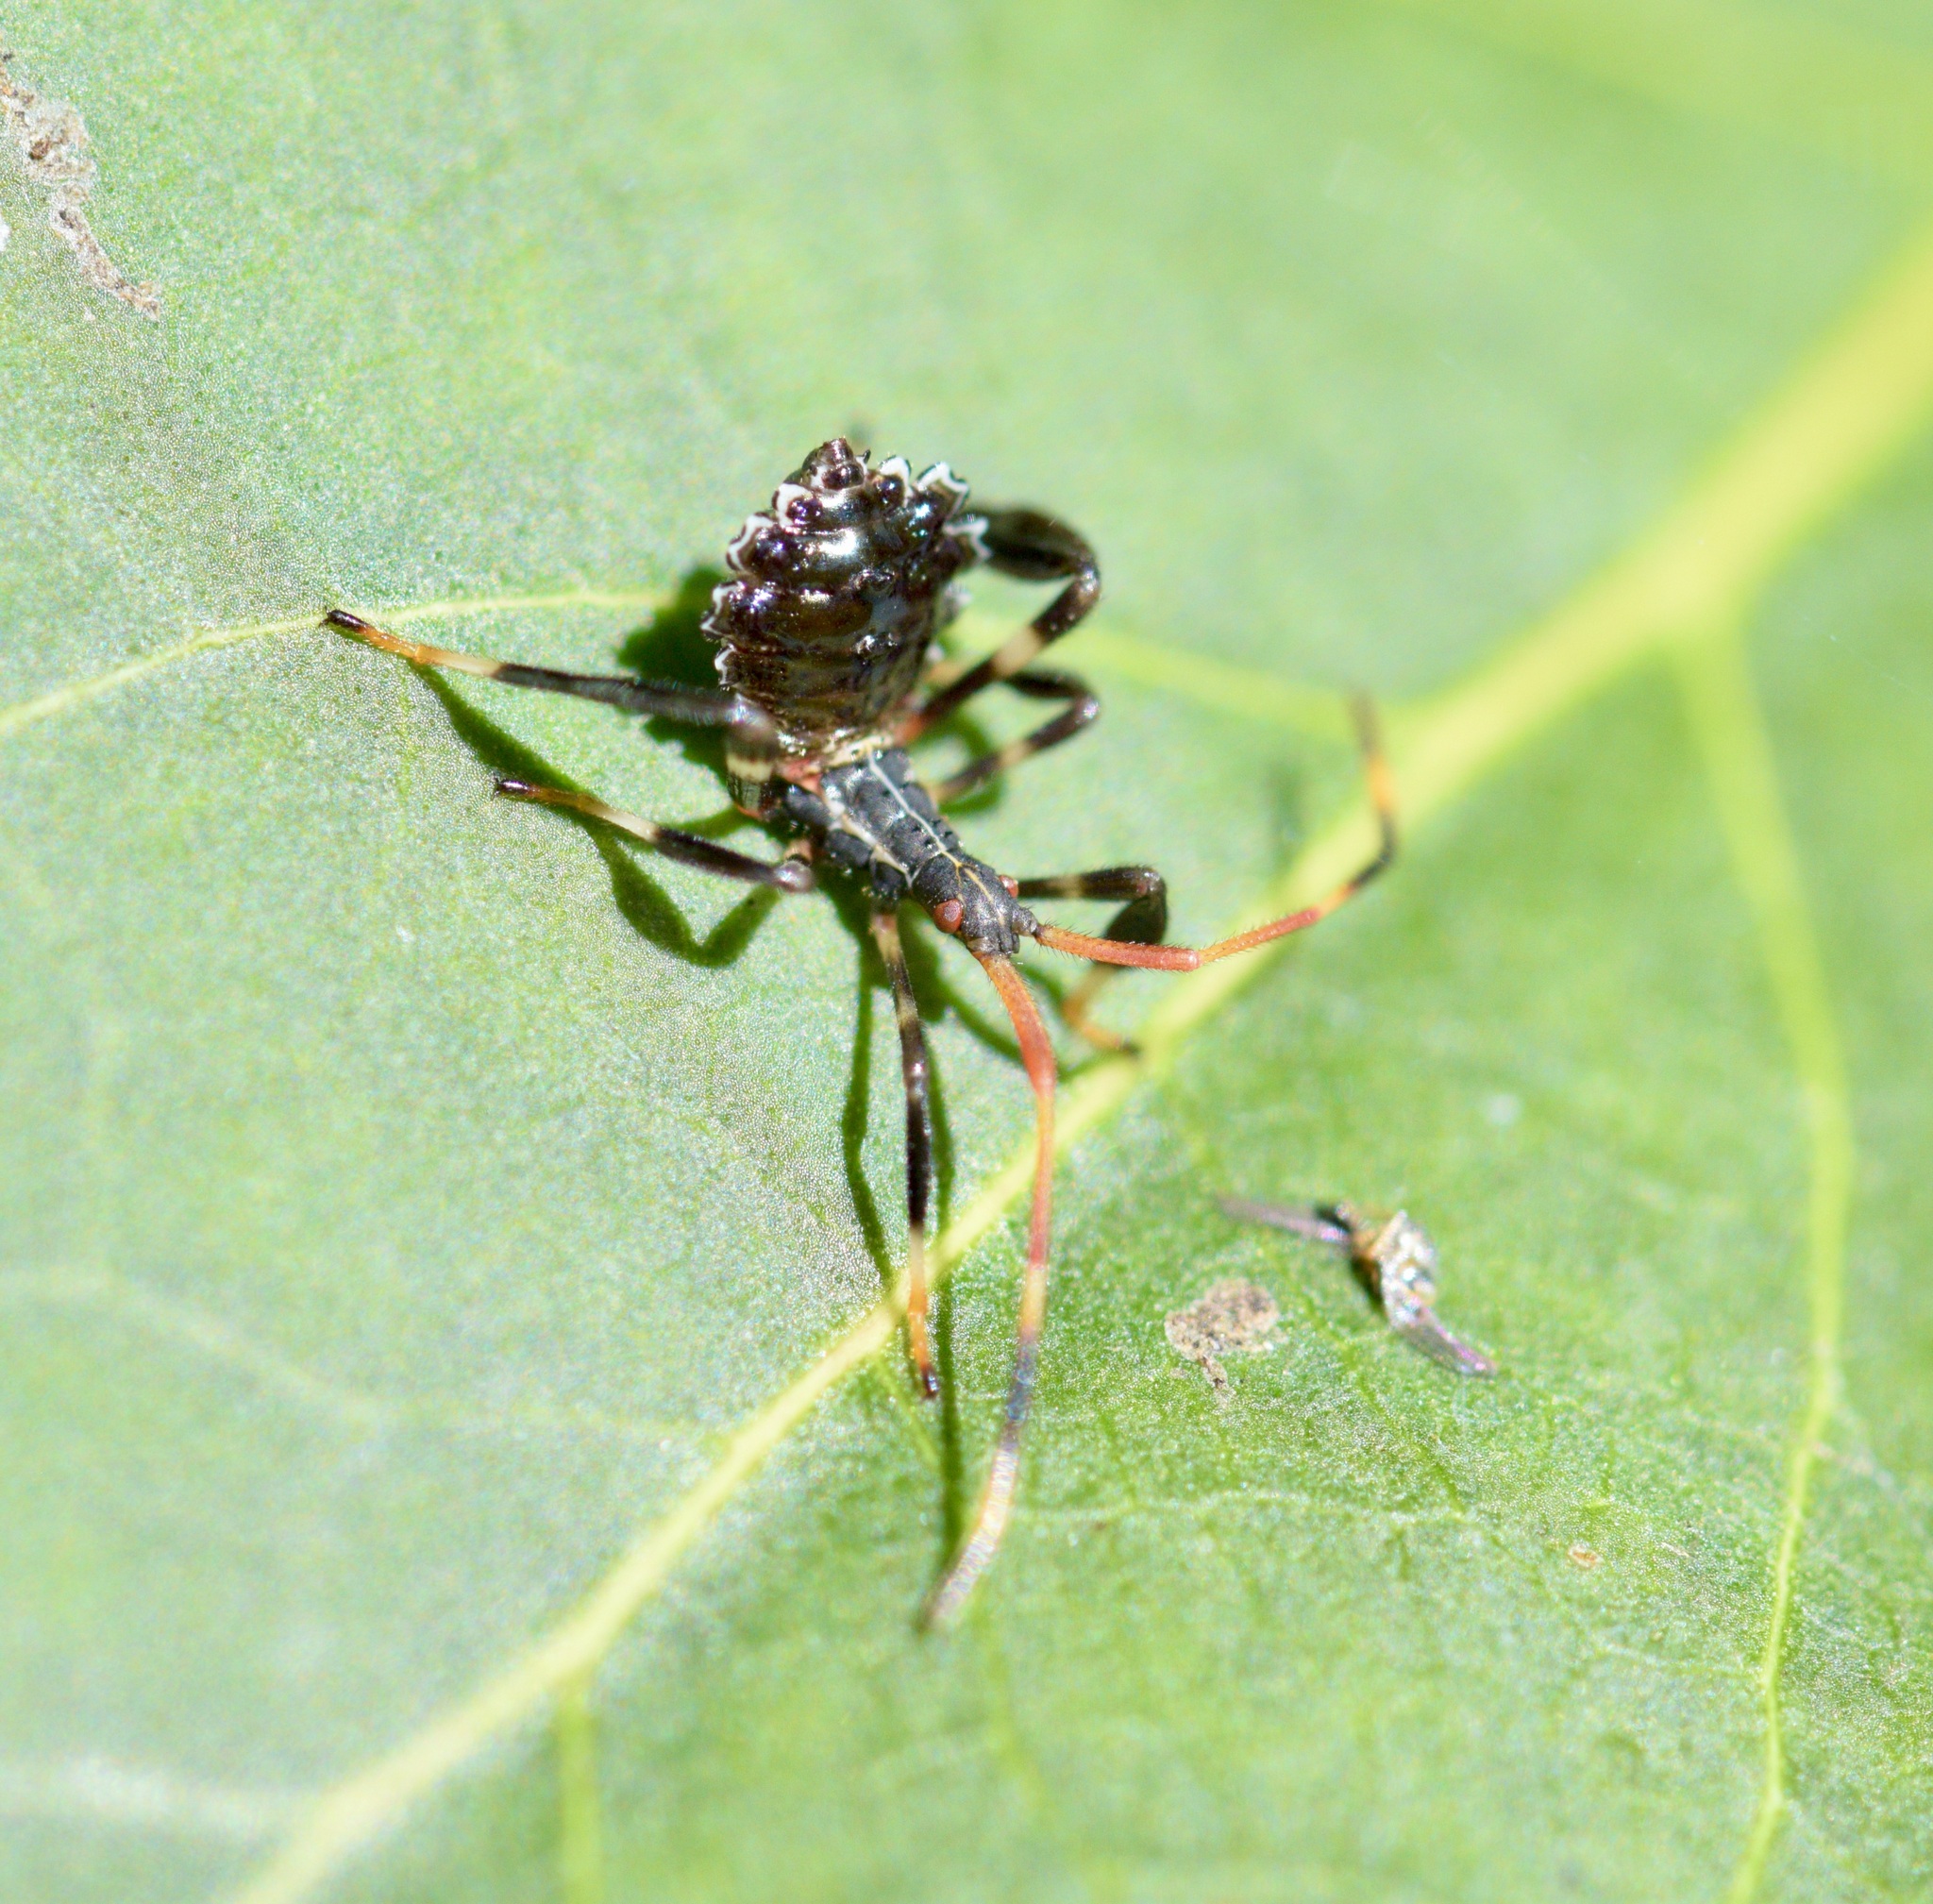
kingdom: Animalia
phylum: Arthropoda
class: Insecta
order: Hemiptera
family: Coreidae
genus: Acanthocephala
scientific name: Acanthocephala terminalis
